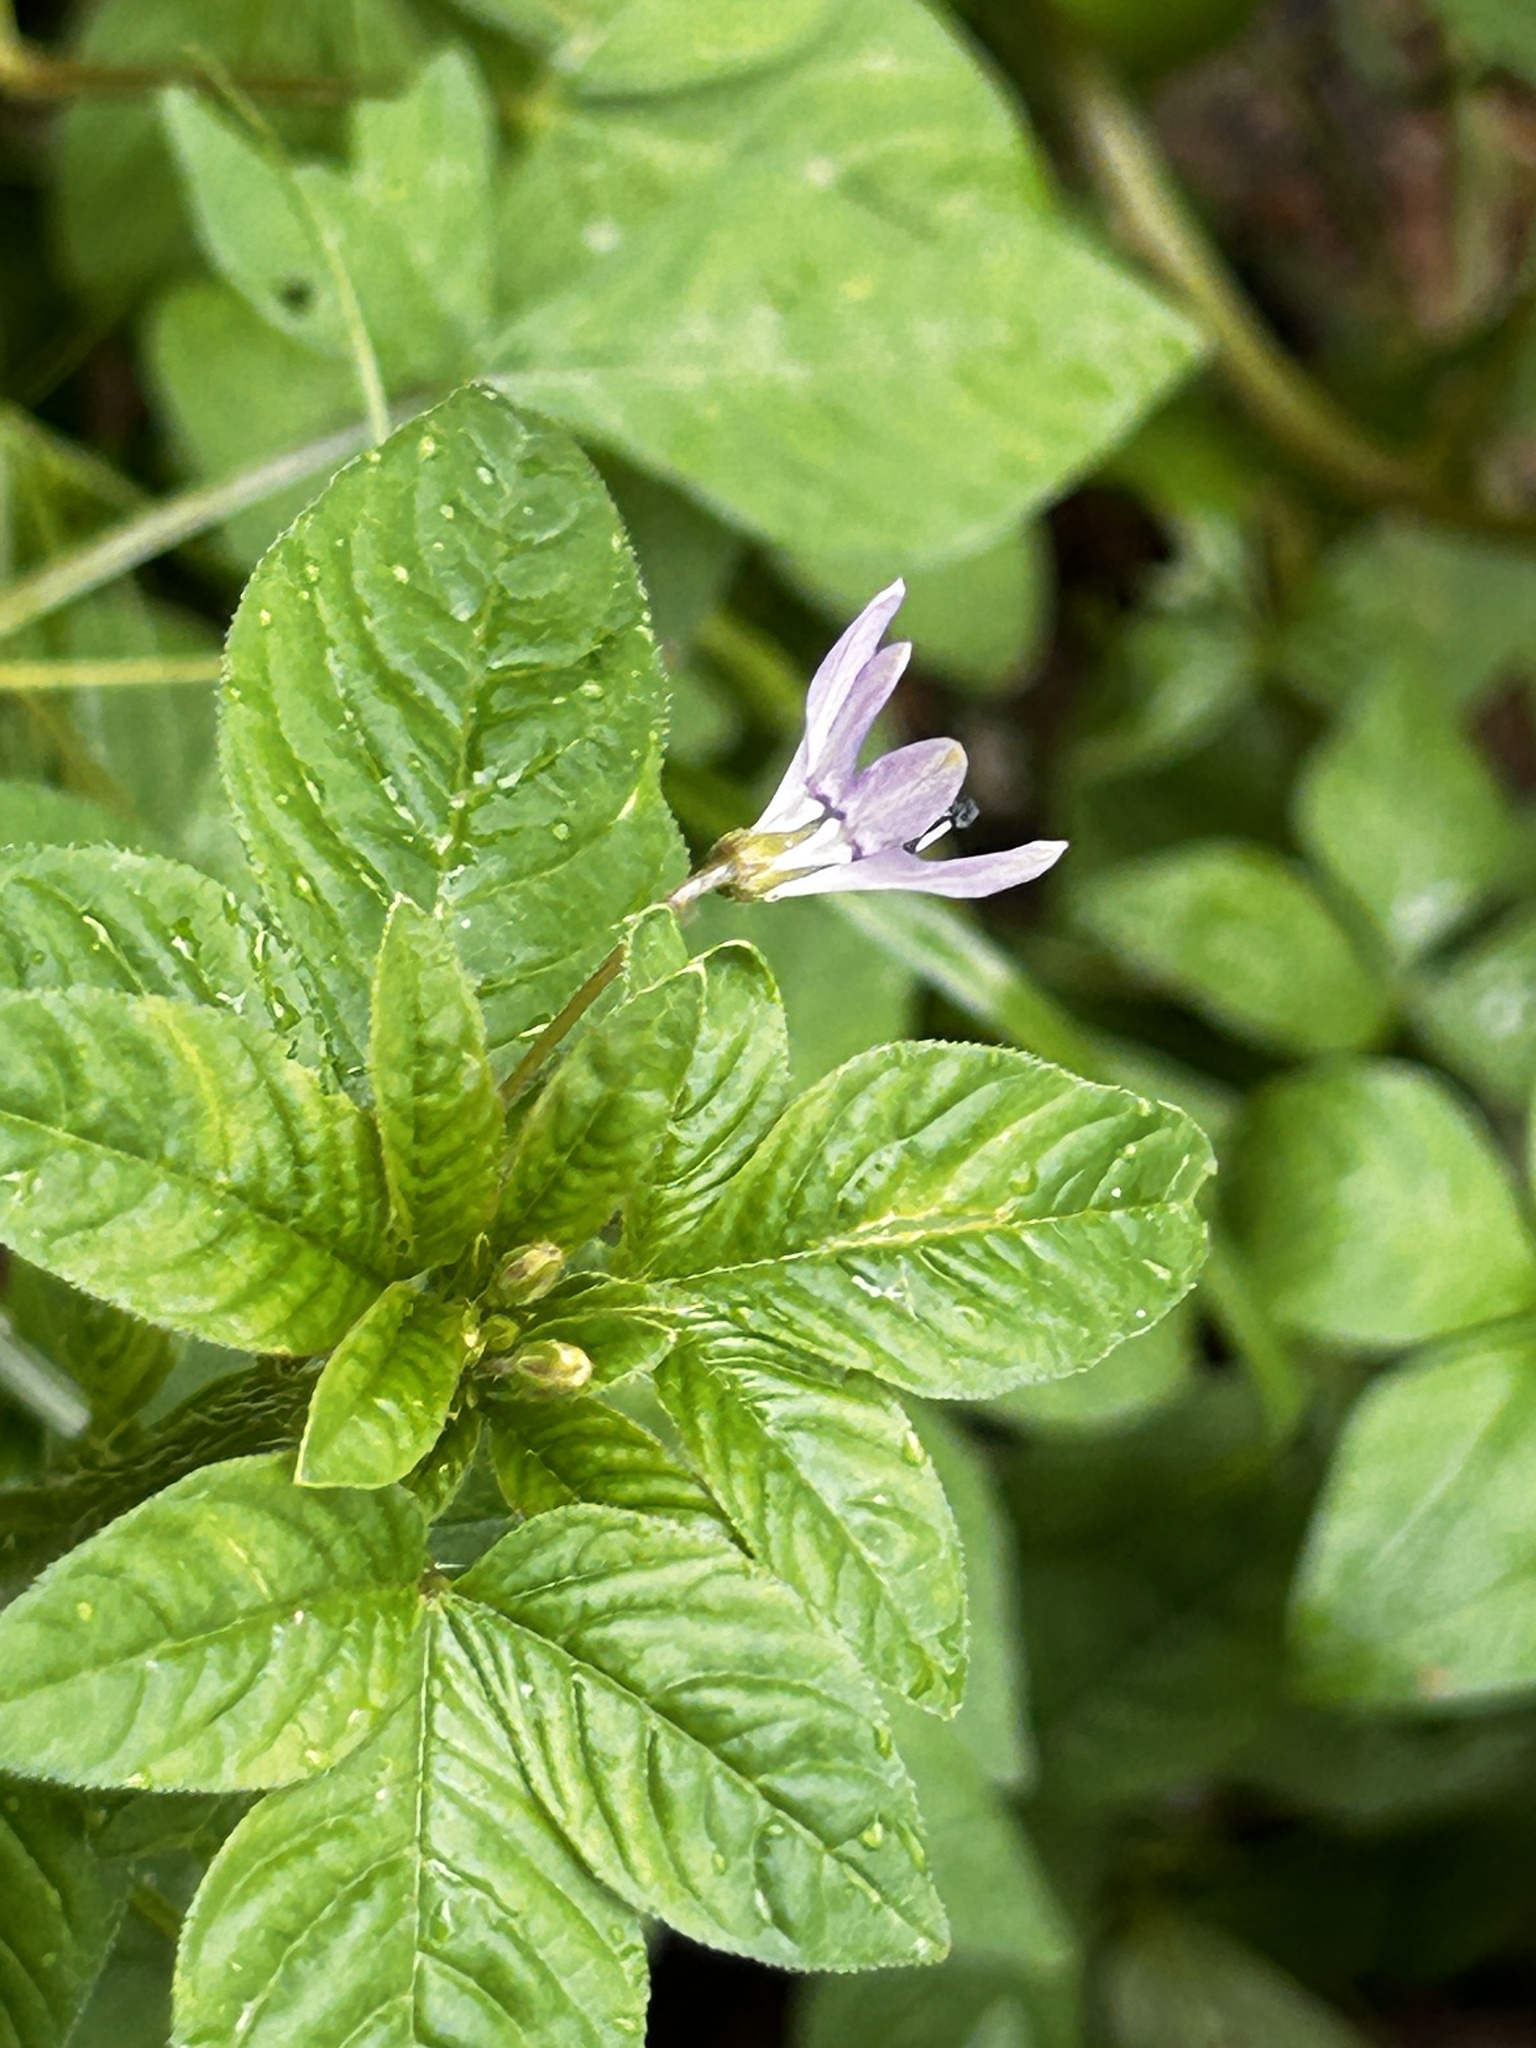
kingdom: Plantae
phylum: Tracheophyta
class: Magnoliopsida
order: Brassicales
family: Cleomaceae
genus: Sieruela
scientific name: Sieruela rutidosperma
